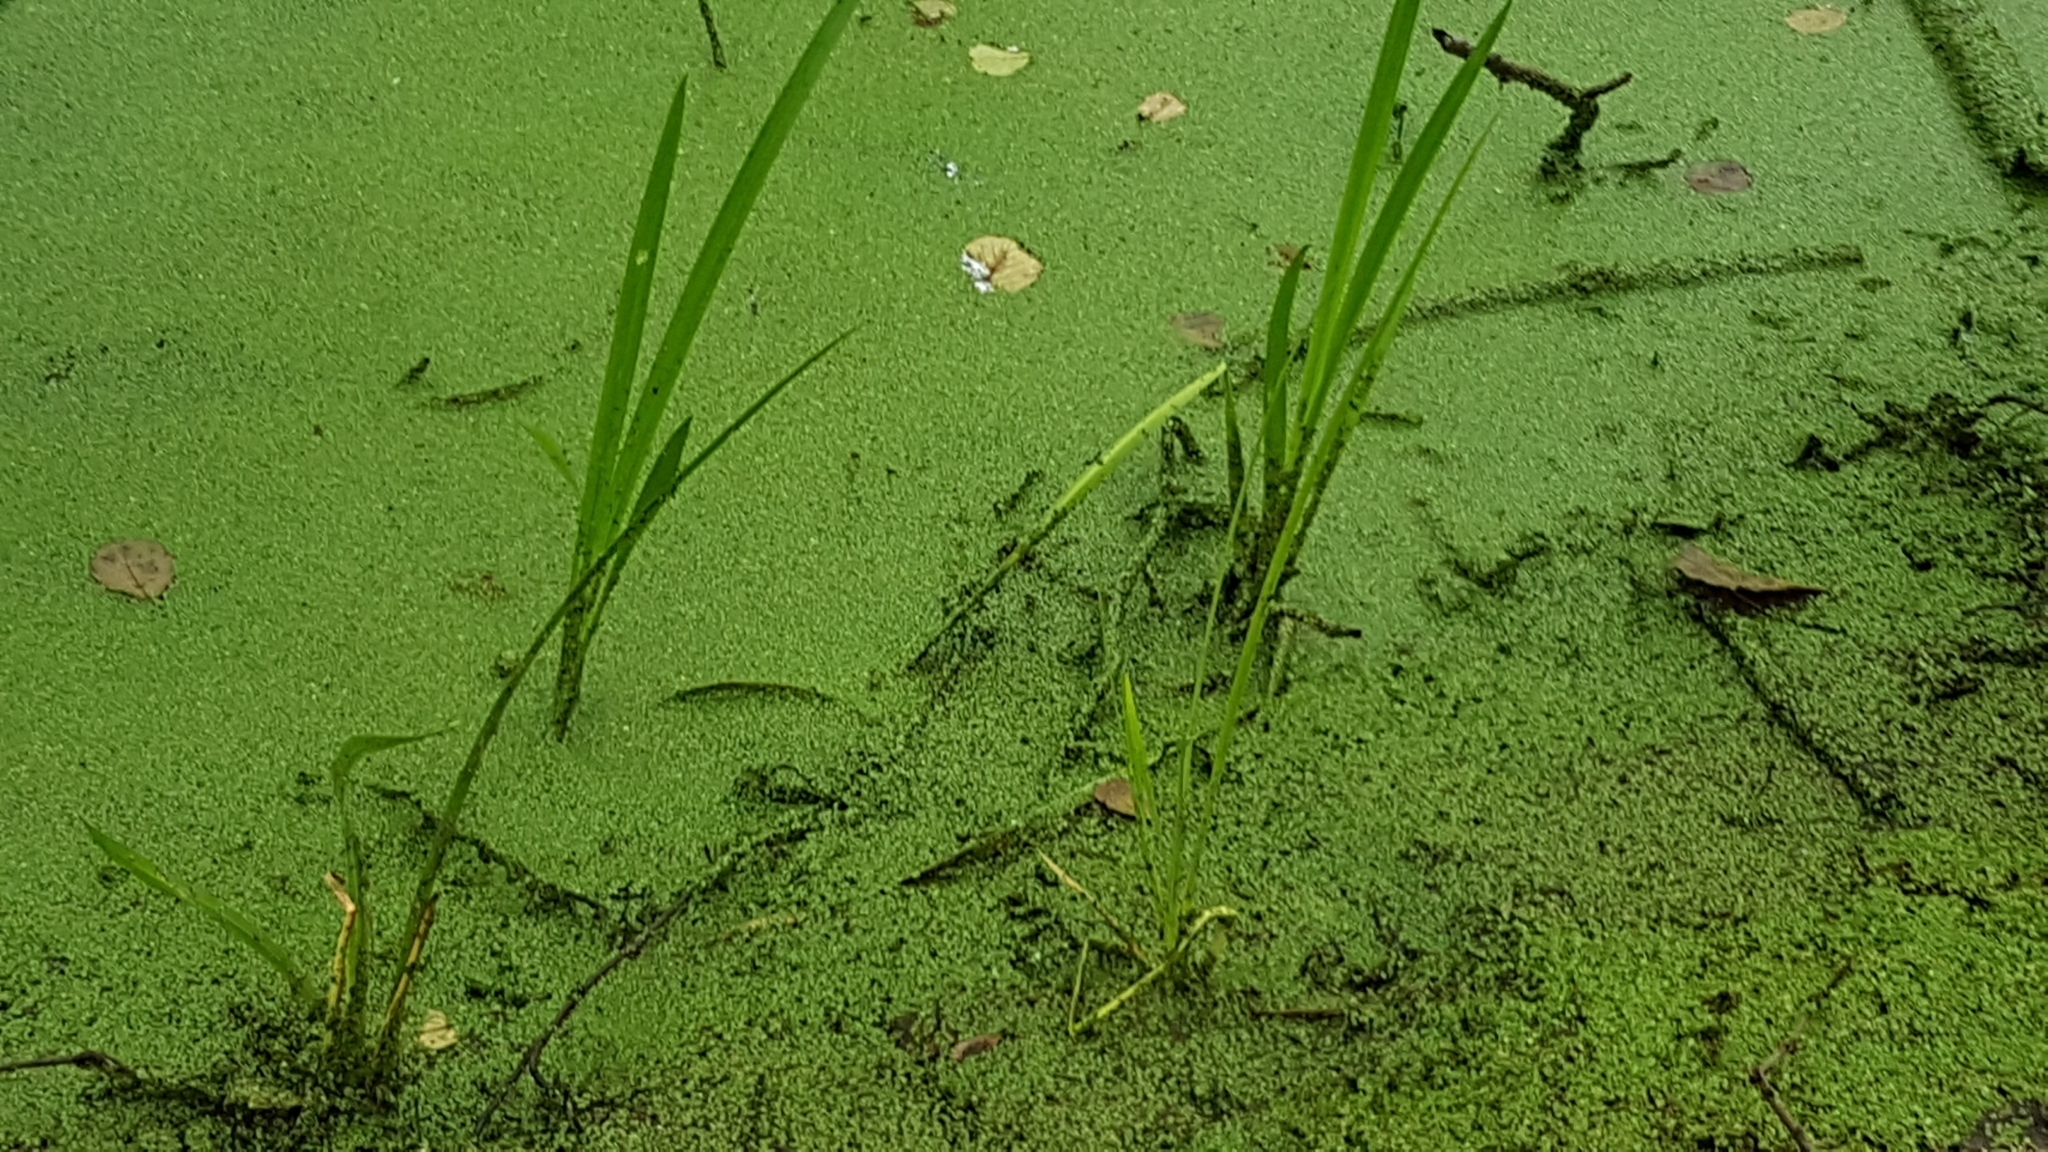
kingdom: Plantae
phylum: Tracheophyta
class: Liliopsida
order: Alismatales
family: Araceae
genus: Lemna
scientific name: Lemna minor
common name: Common duckweed
